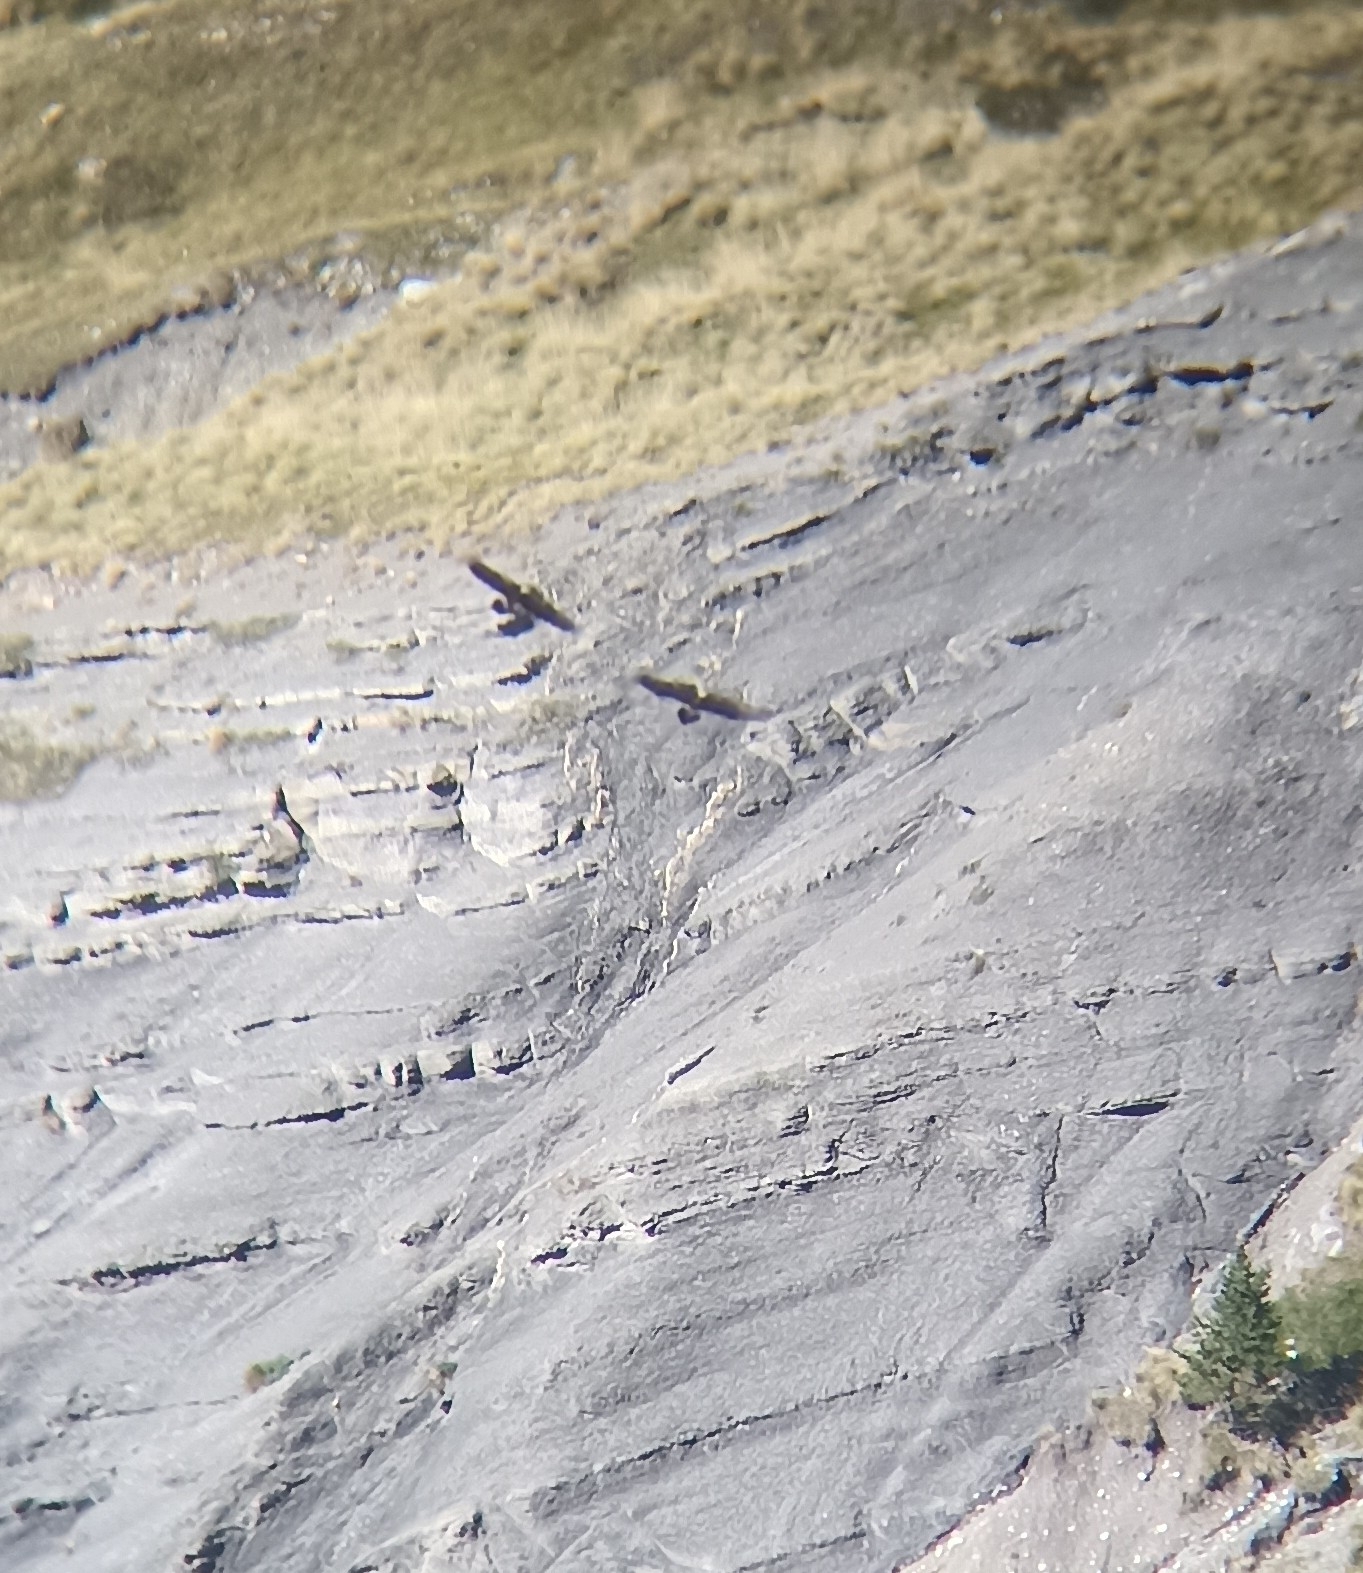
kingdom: Animalia
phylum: Chordata
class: Aves
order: Accipitriformes
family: Accipitridae
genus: Gypaetus
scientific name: Gypaetus barbatus
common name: Bearded vulture
